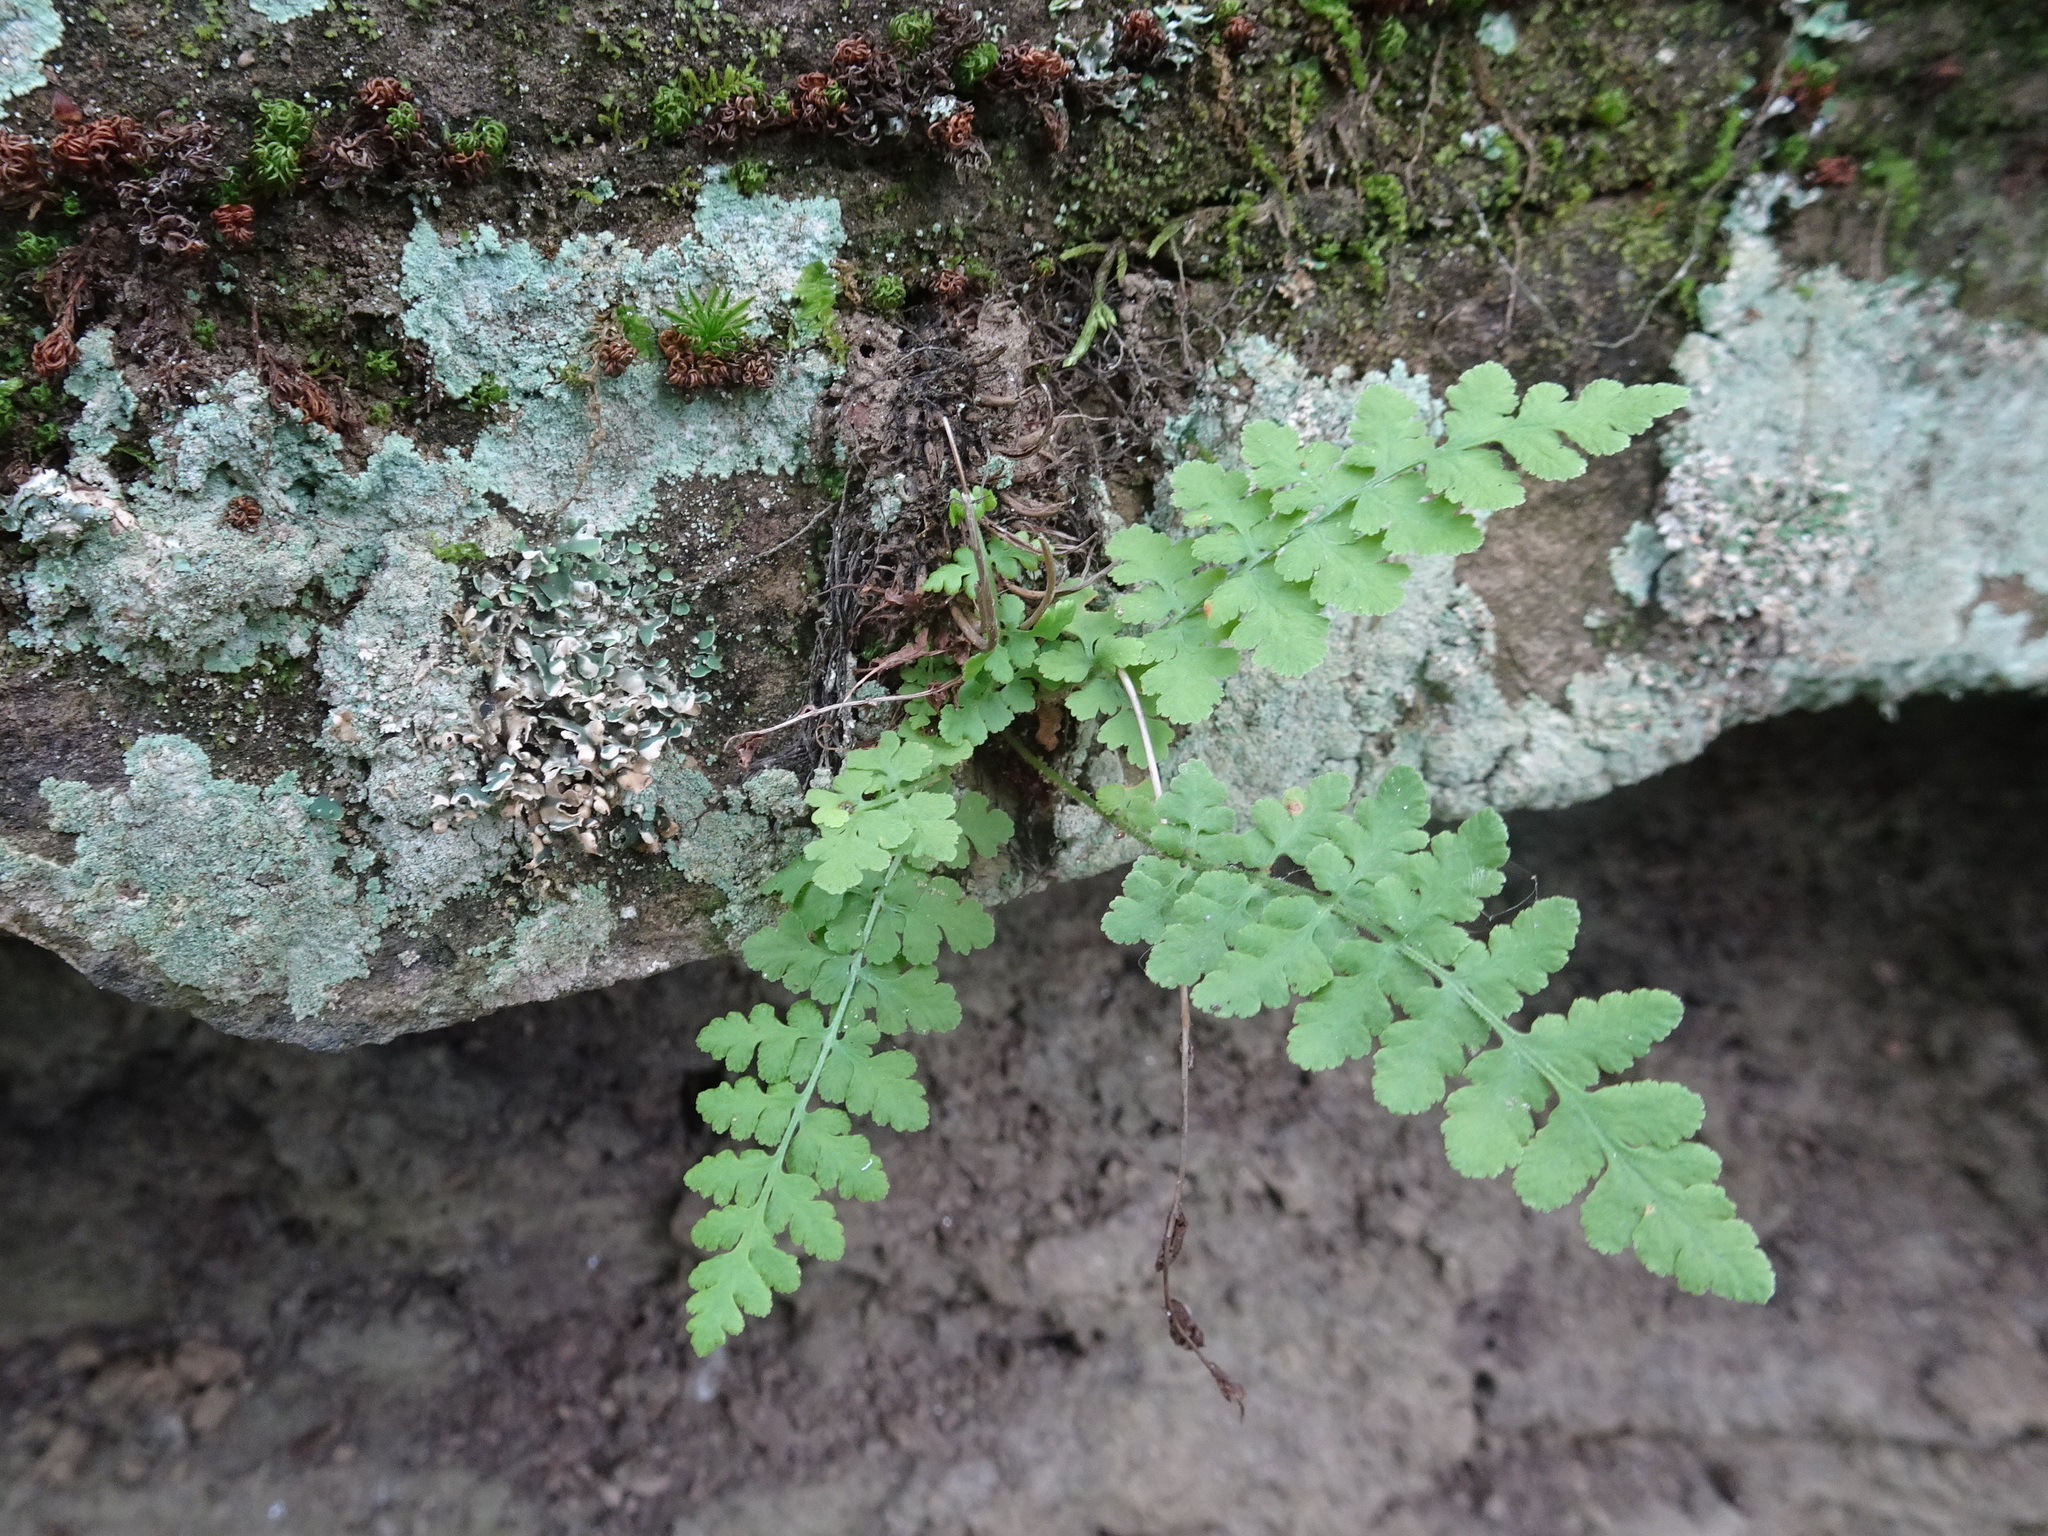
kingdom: Plantae
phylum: Tracheophyta
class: Polypodiopsida
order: Polypodiales
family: Woodsiaceae
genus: Physematium
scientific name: Physematium obtusum
